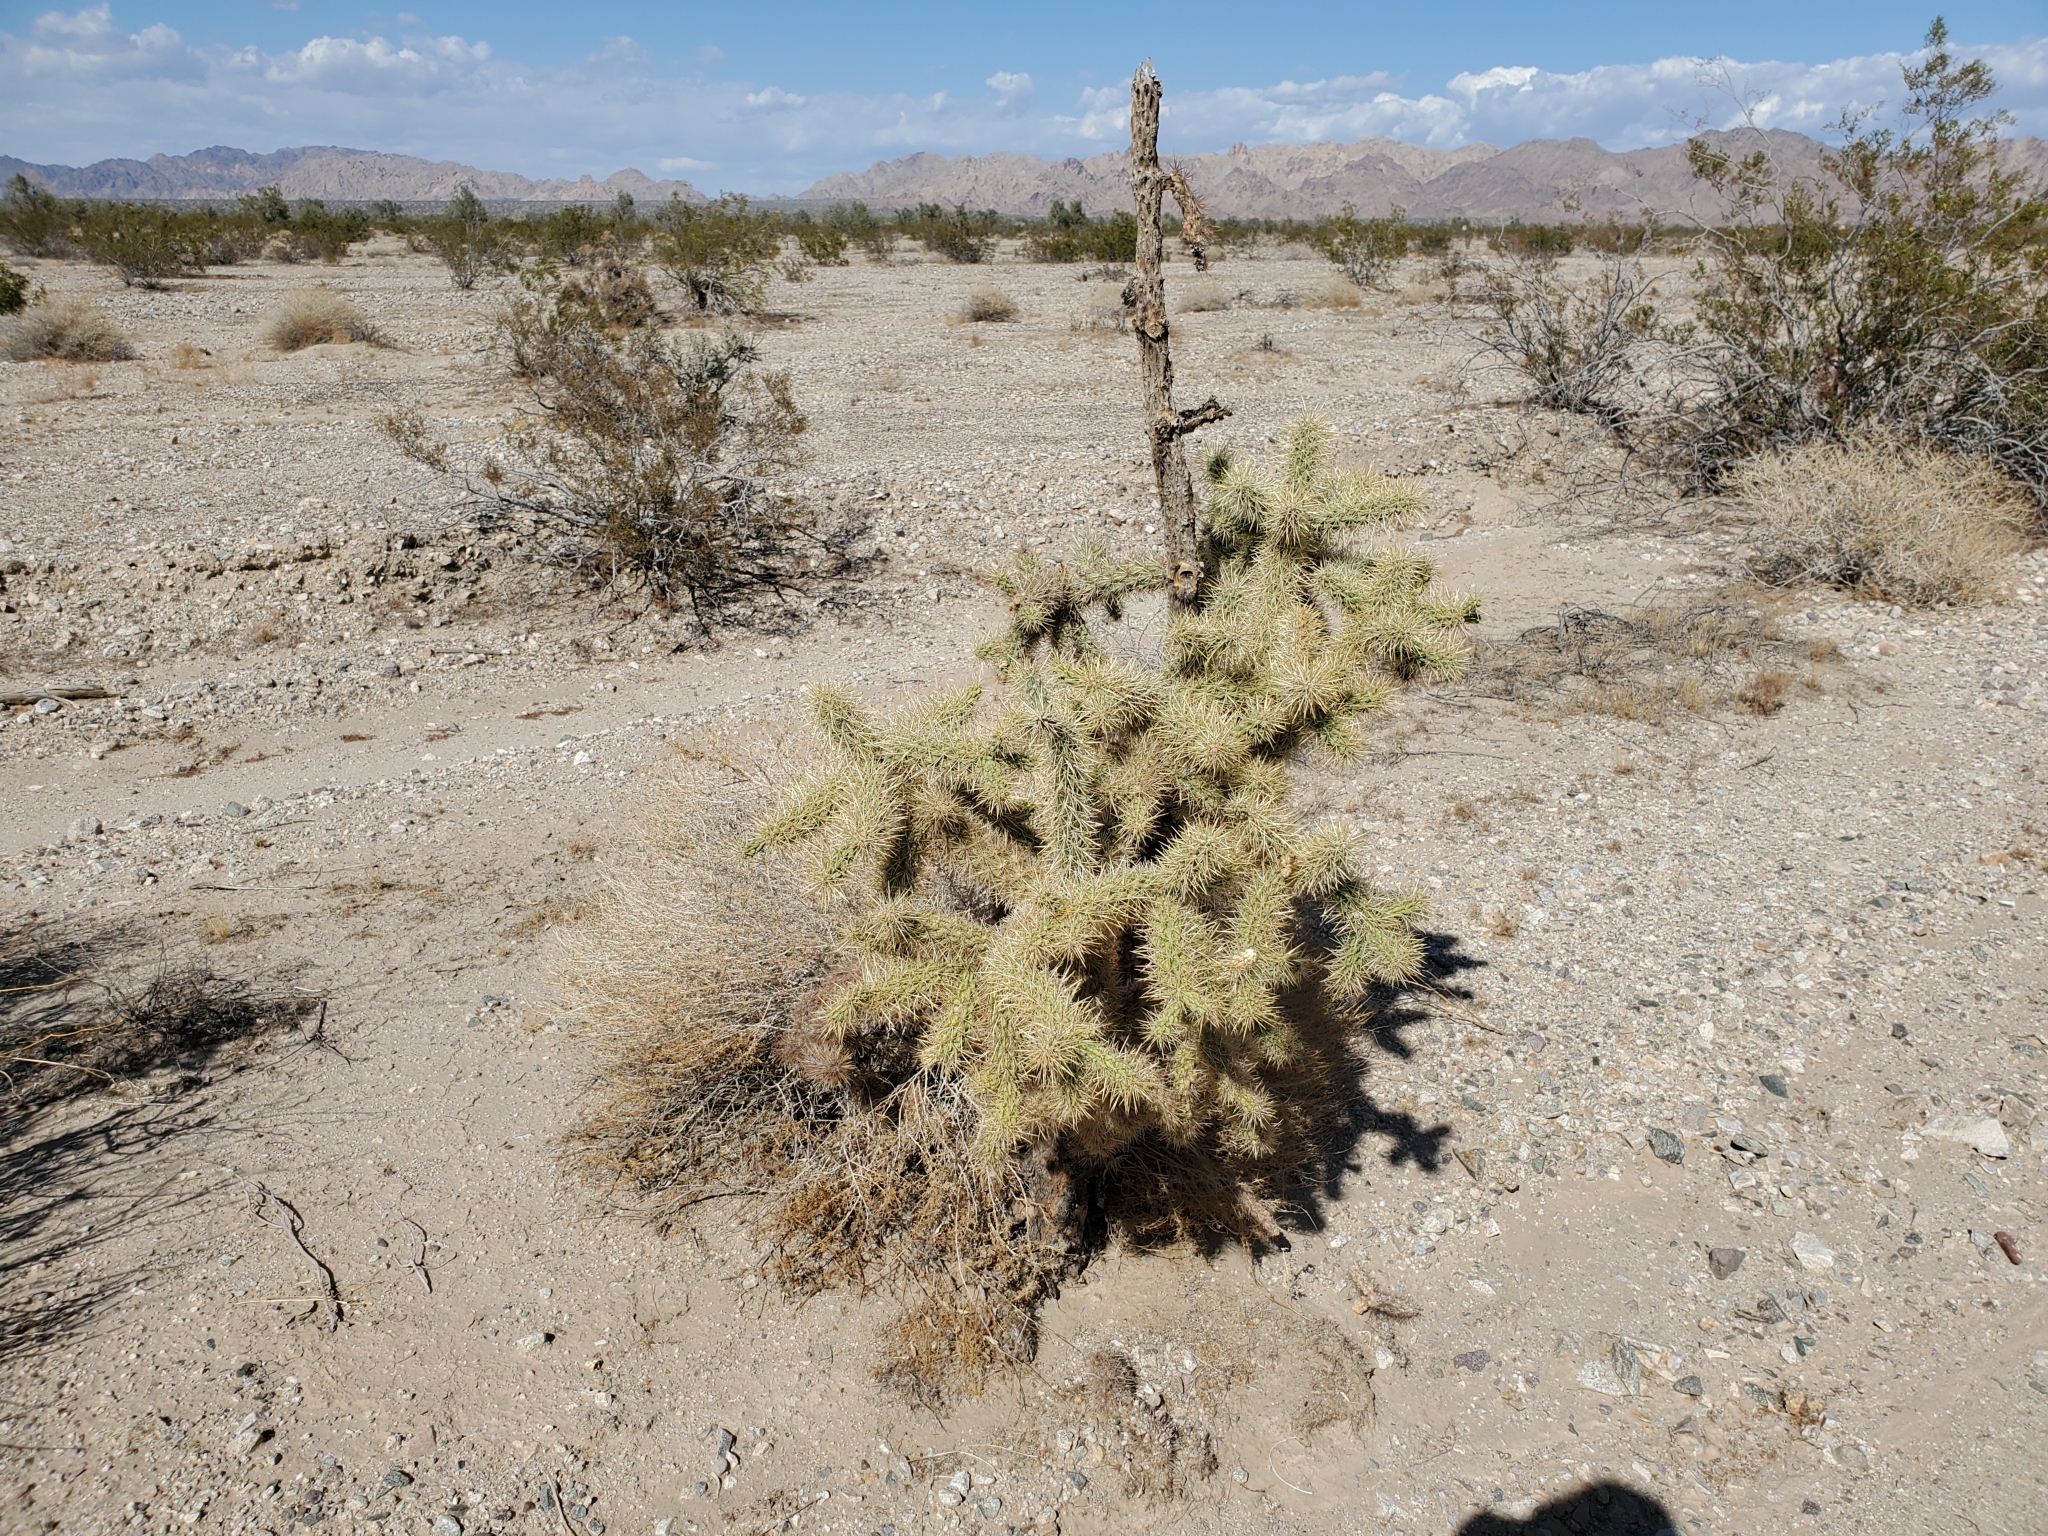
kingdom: Plantae
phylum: Tracheophyta
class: Magnoliopsida
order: Caryophyllales
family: Cactaceae
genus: Cylindropuntia
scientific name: Cylindropuntia echinocarpa
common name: Ground cholla
